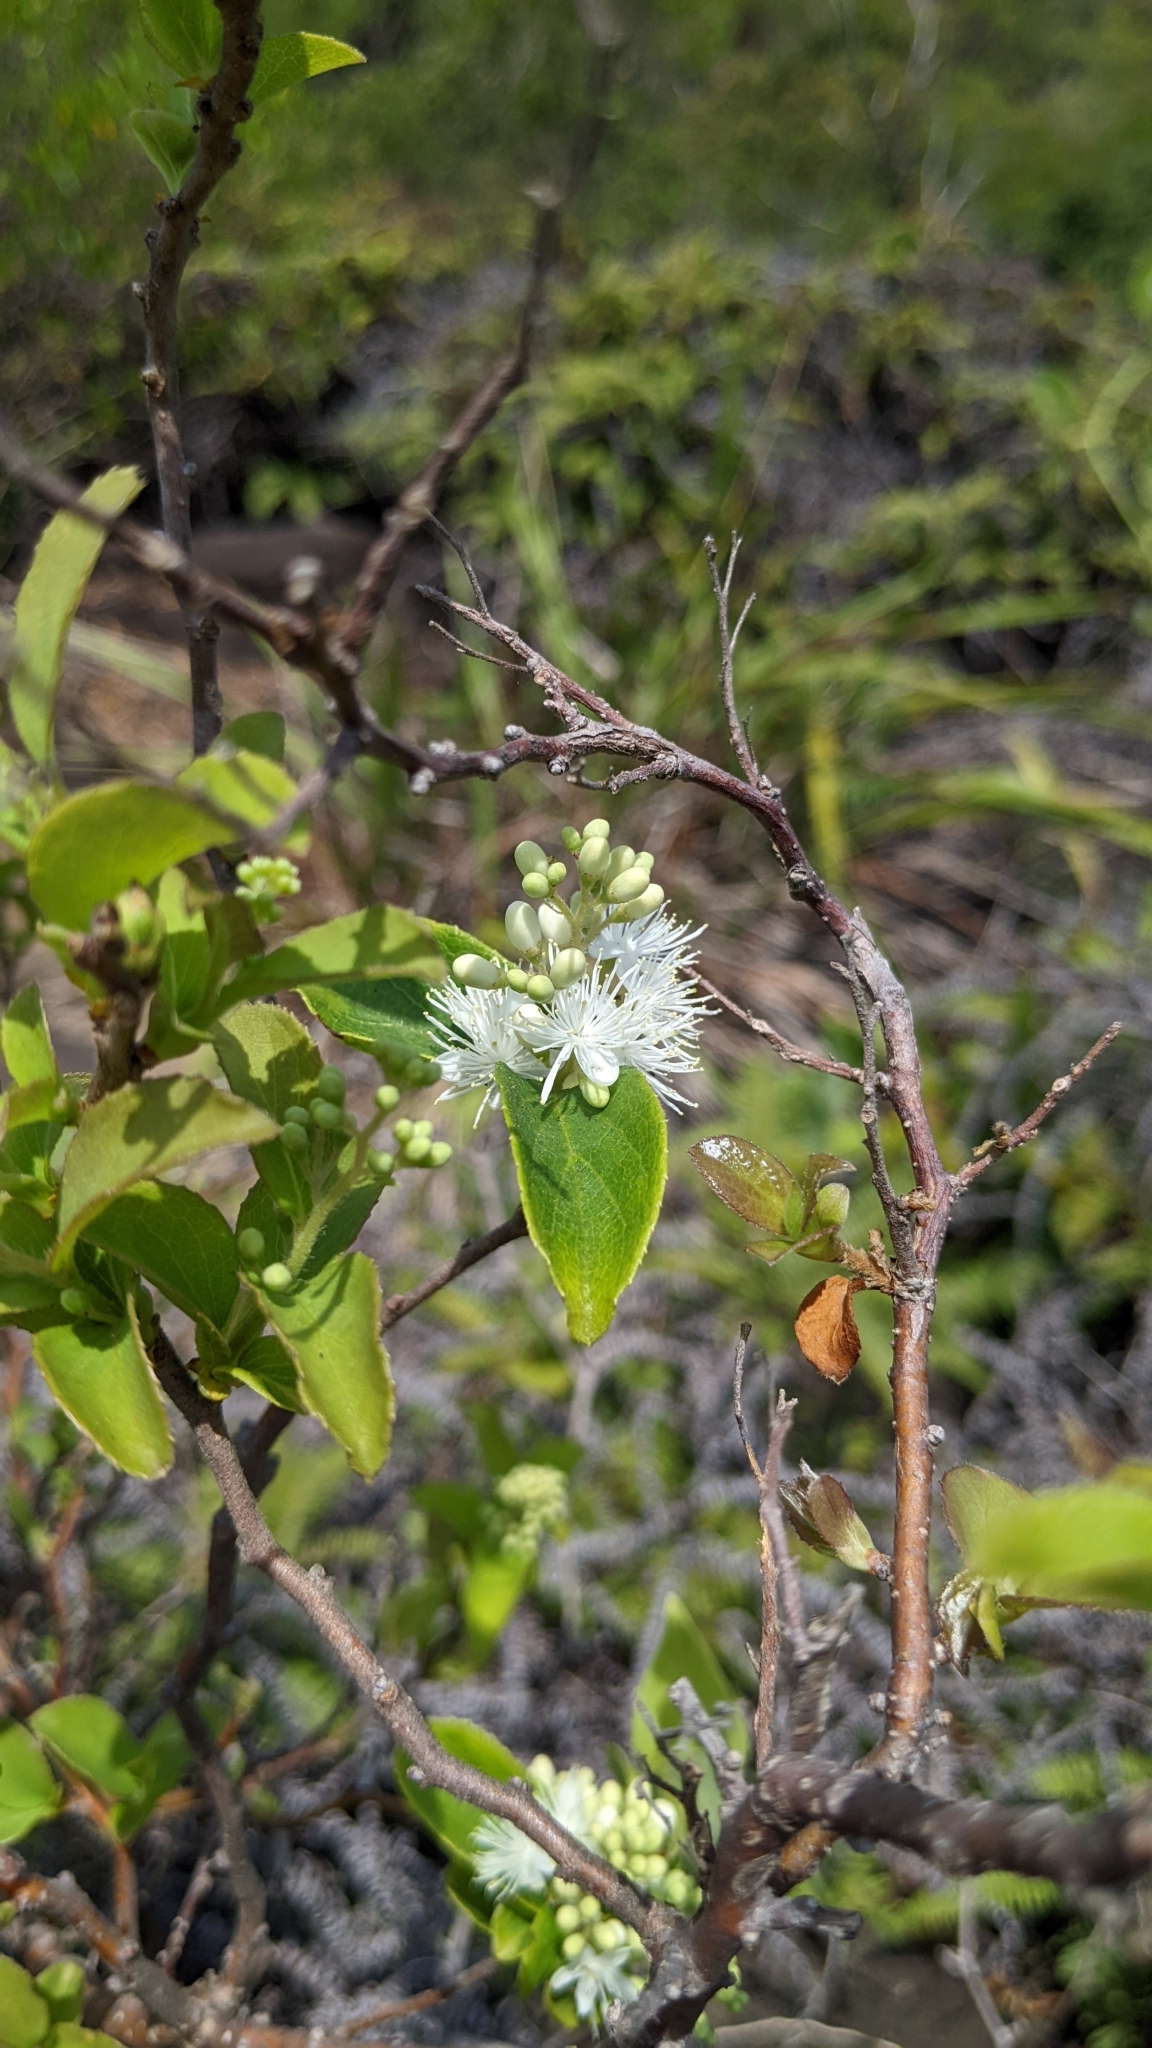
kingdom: Plantae
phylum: Tracheophyta
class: Magnoliopsida
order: Ericales
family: Symplocaceae
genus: Symplocos
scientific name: Symplocos paniculata
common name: Sapphire-berry
